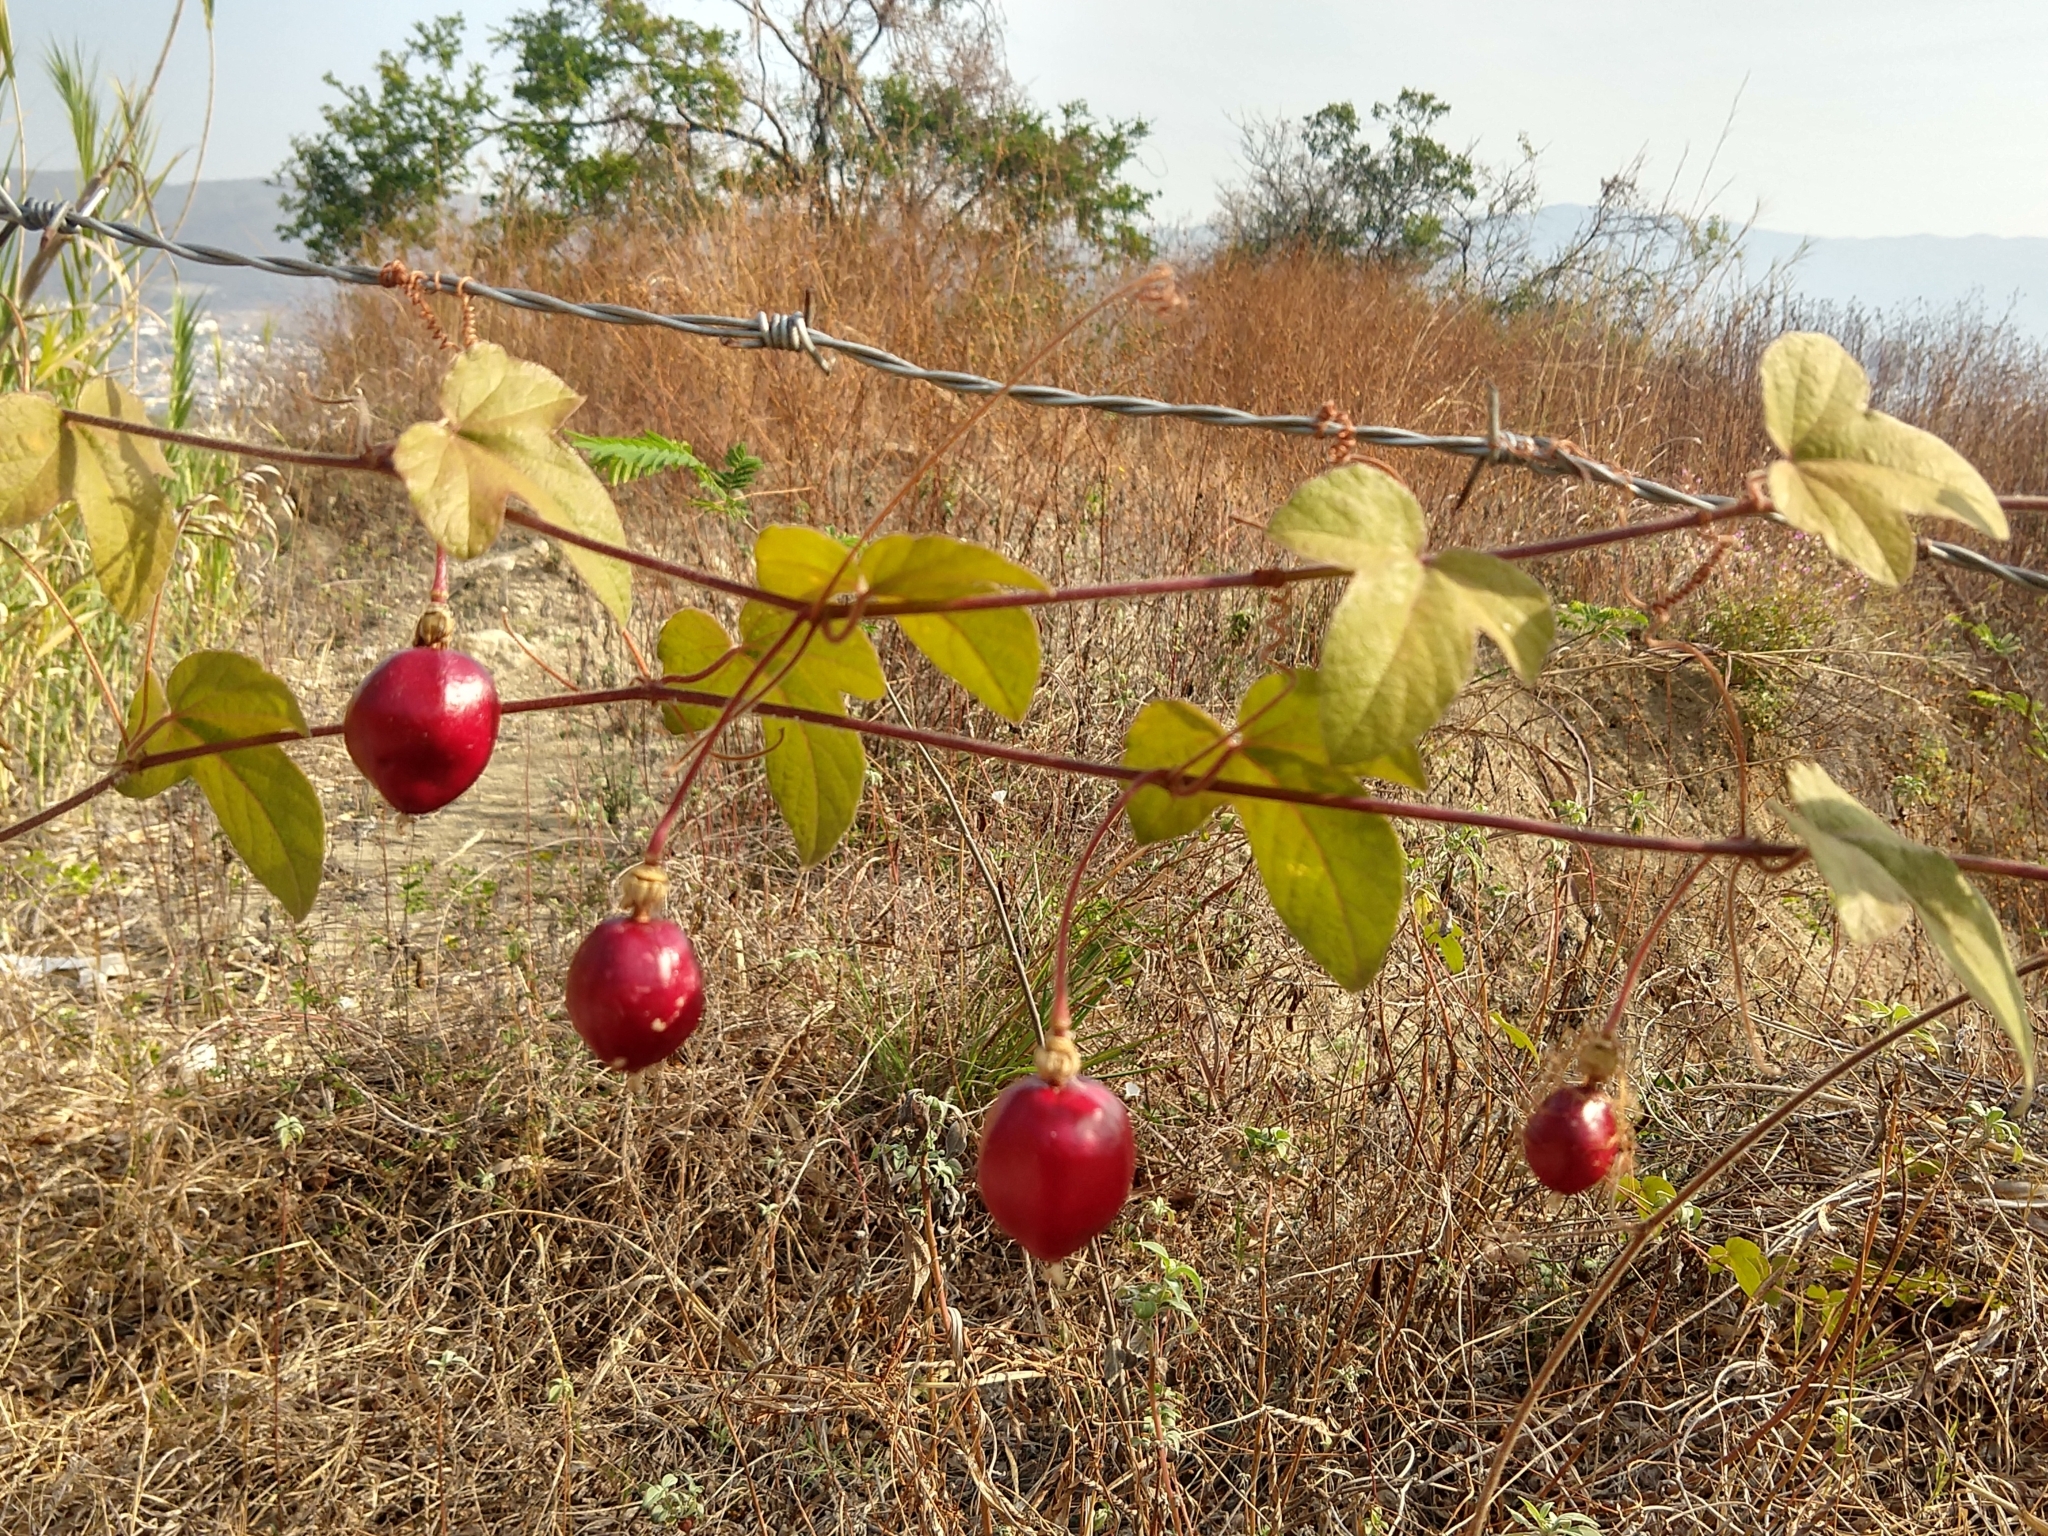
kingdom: Plantae
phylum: Tracheophyta
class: Magnoliopsida
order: Malpighiales
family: Passifloraceae
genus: Passiflora
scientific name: Passiflora
